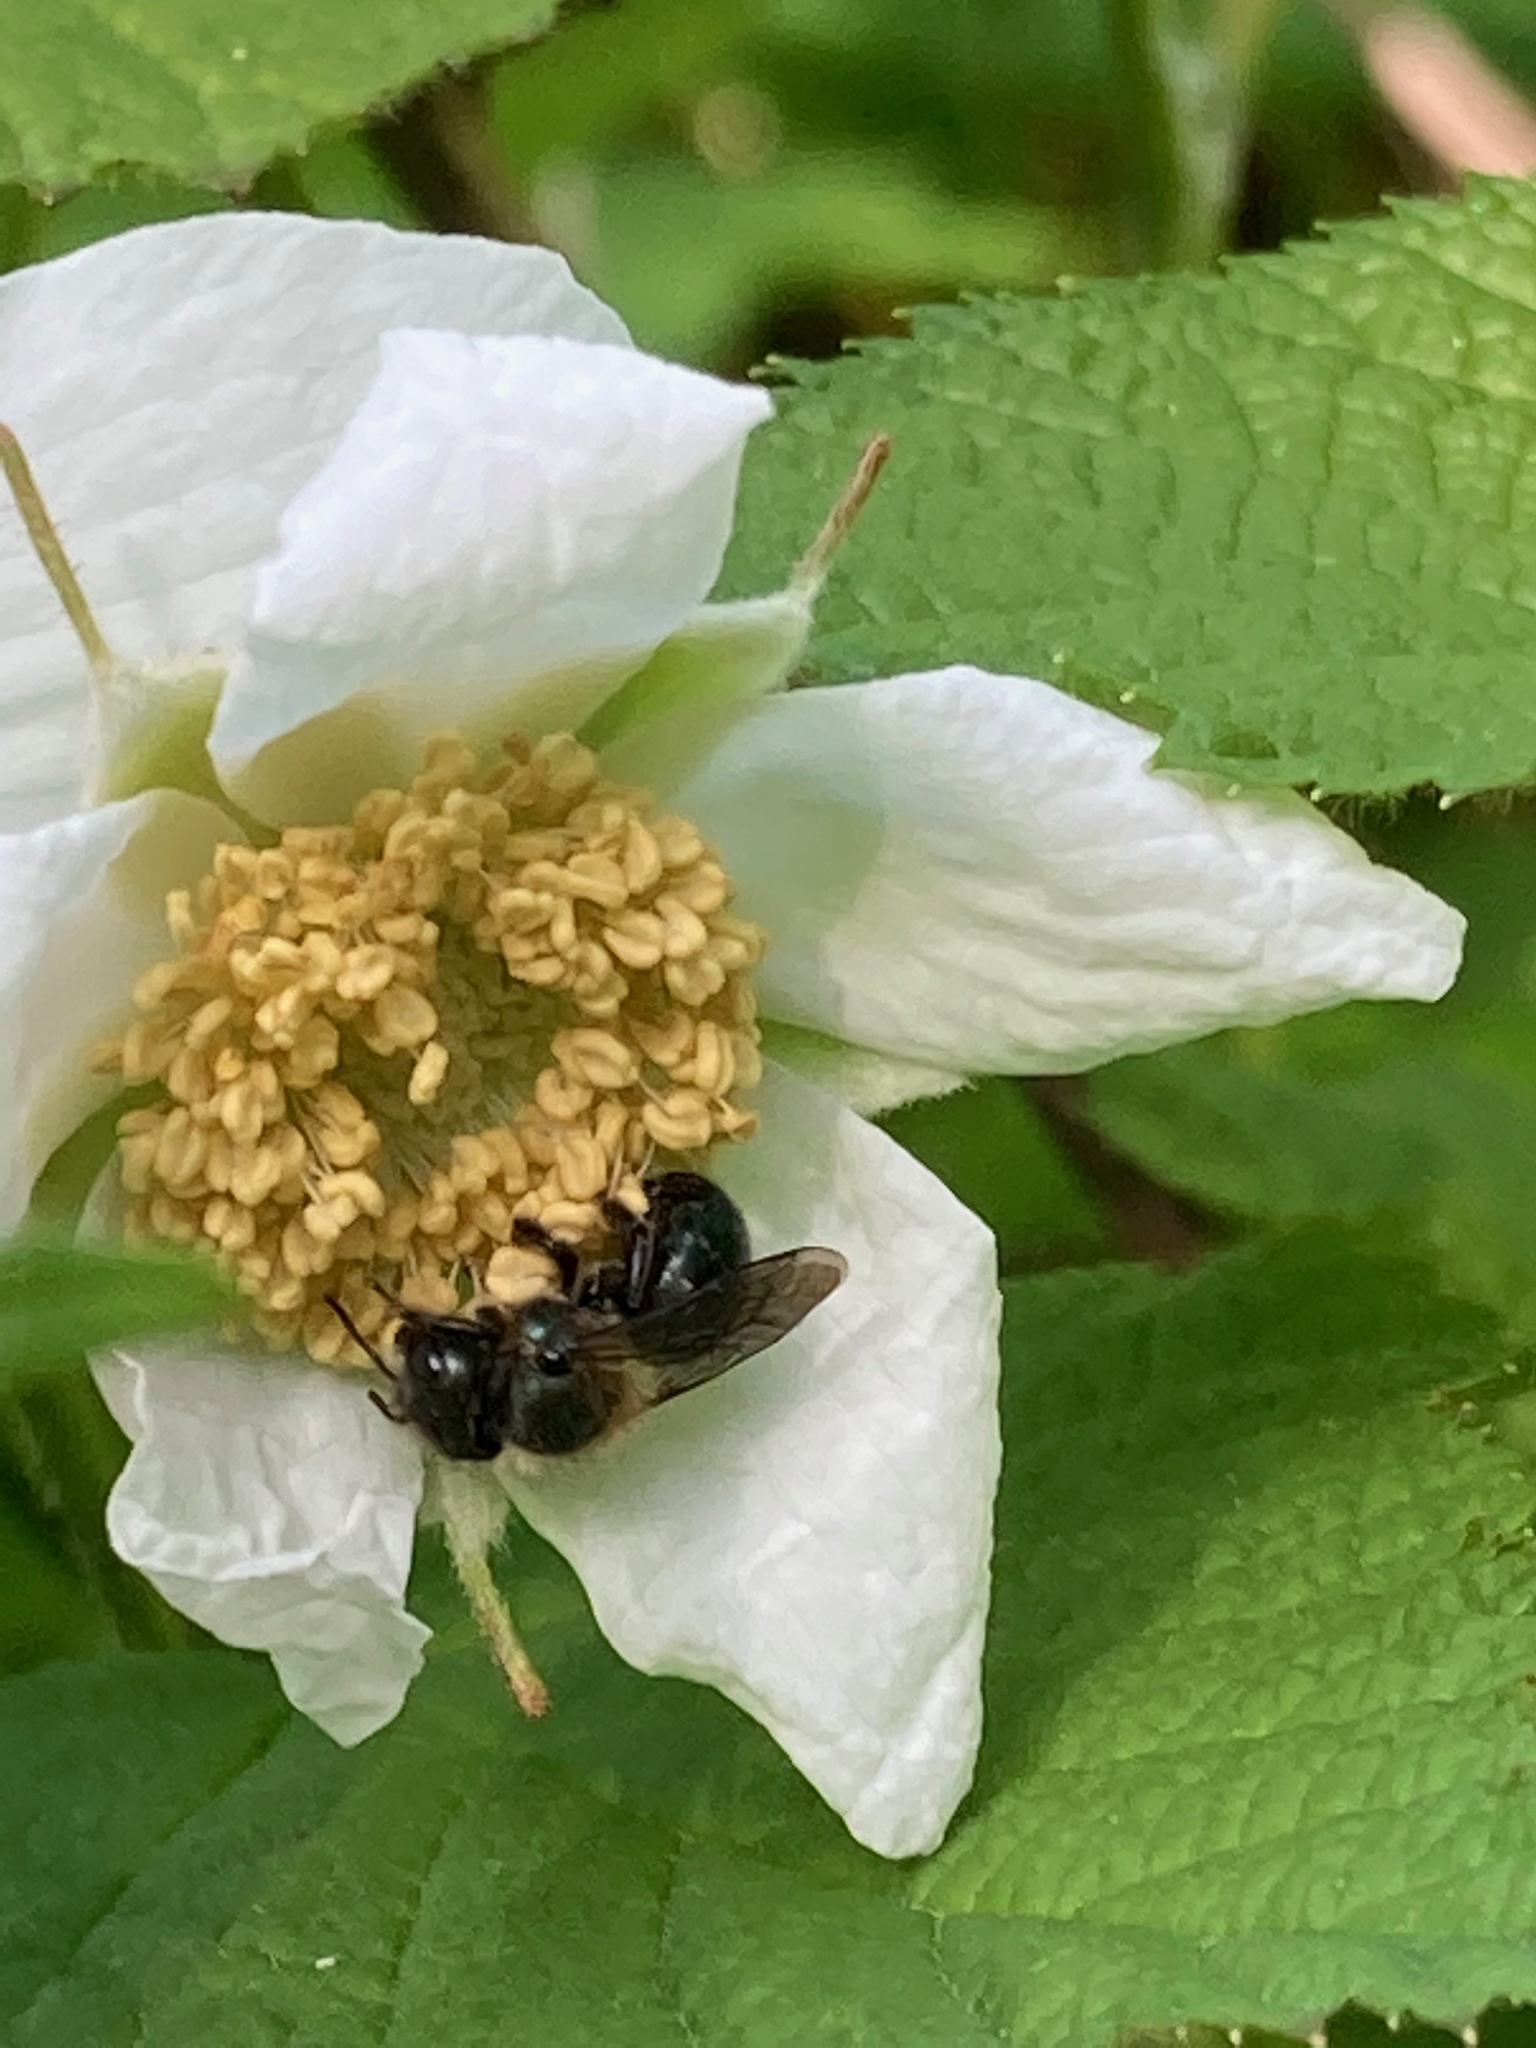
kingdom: Plantae
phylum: Tracheophyta
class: Magnoliopsida
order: Rosales
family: Rosaceae
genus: Rubus
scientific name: Rubus parviflorus
